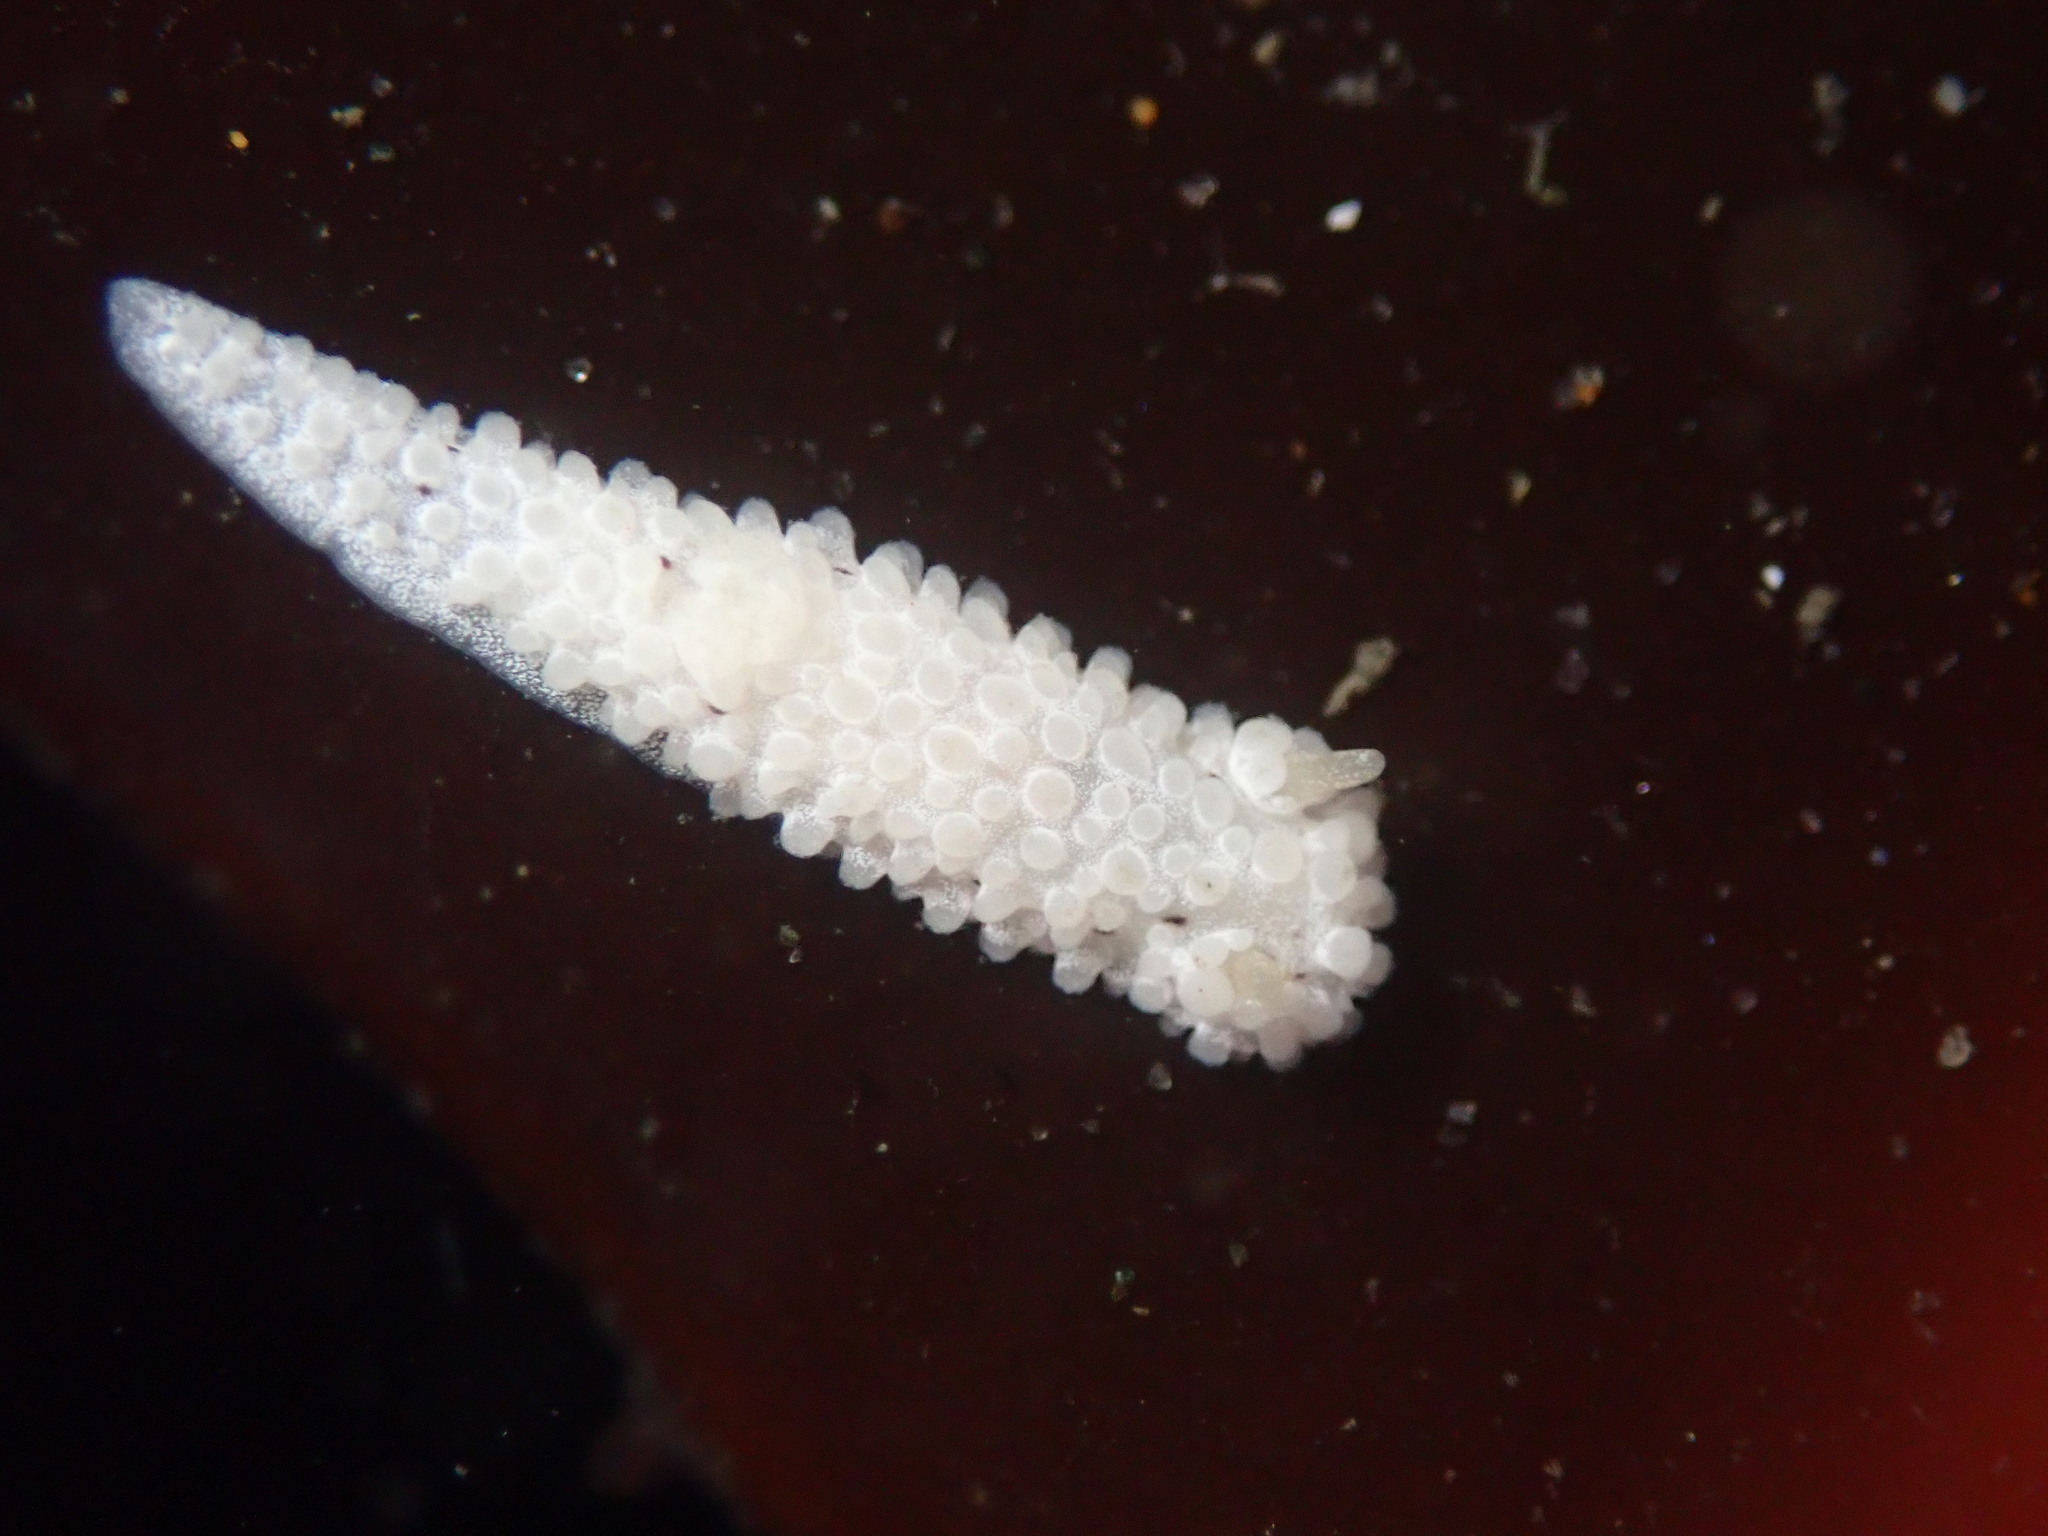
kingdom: Animalia
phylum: Mollusca
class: Gastropoda
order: Nudibranchia
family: Aegiridae
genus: Aegires
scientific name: Aegires albopunctatus
